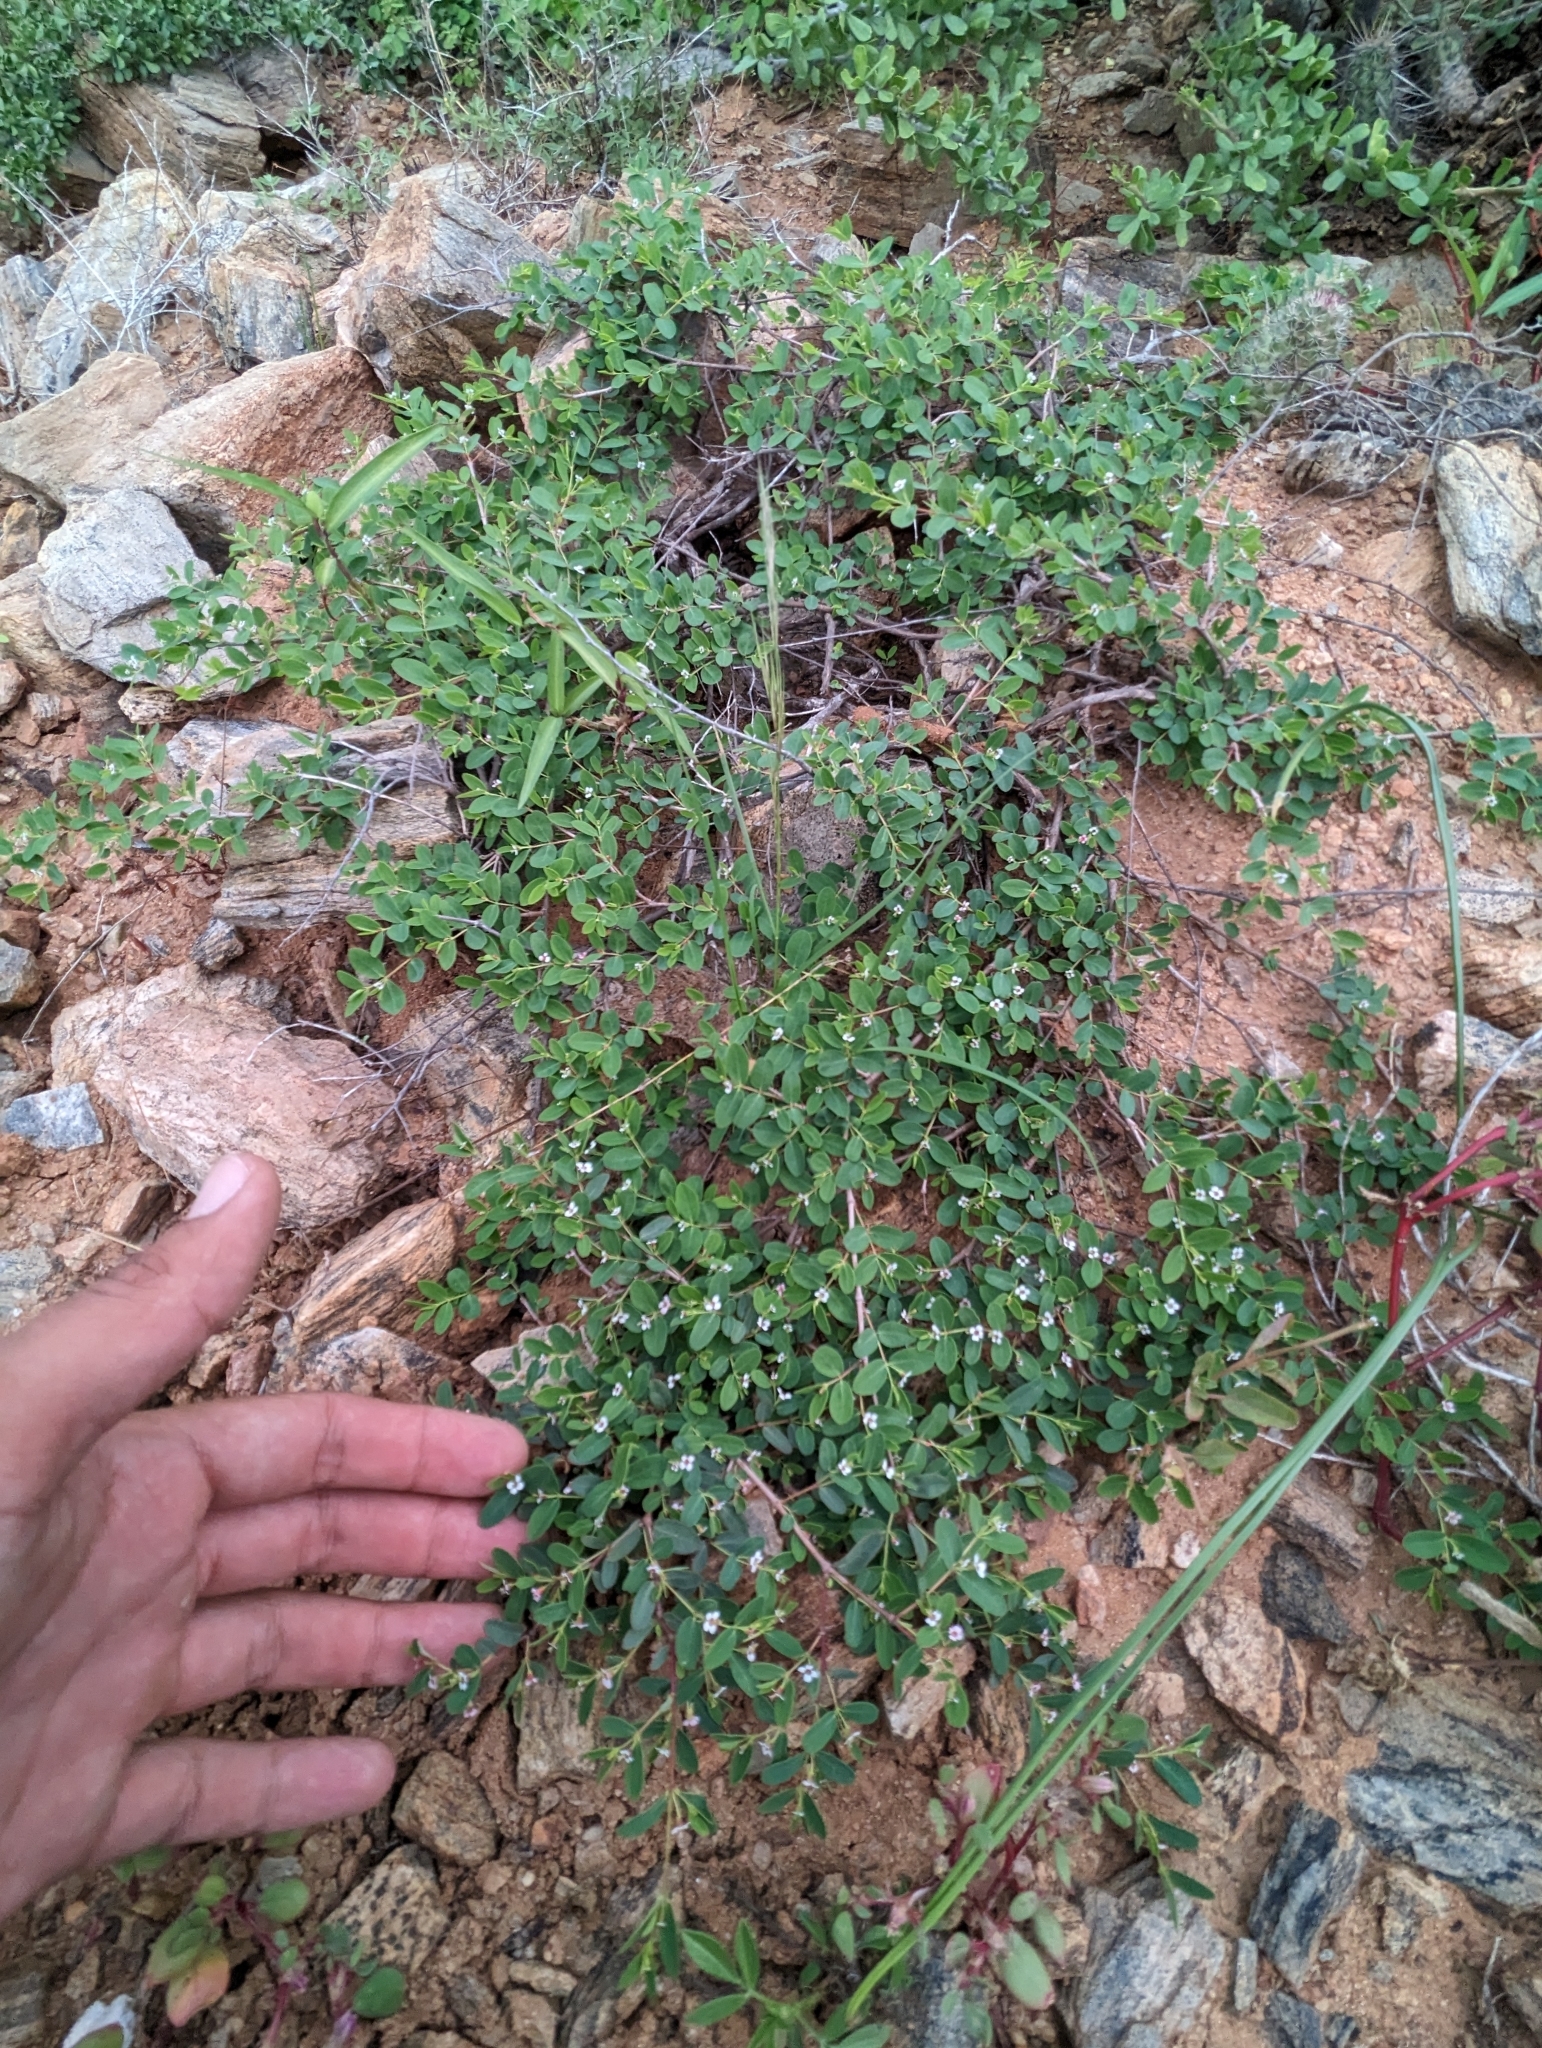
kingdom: Plantae
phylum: Tracheophyta
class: Magnoliopsida
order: Malpighiales
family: Euphorbiaceae
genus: Euphorbia
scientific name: Euphorbia magdalenae
